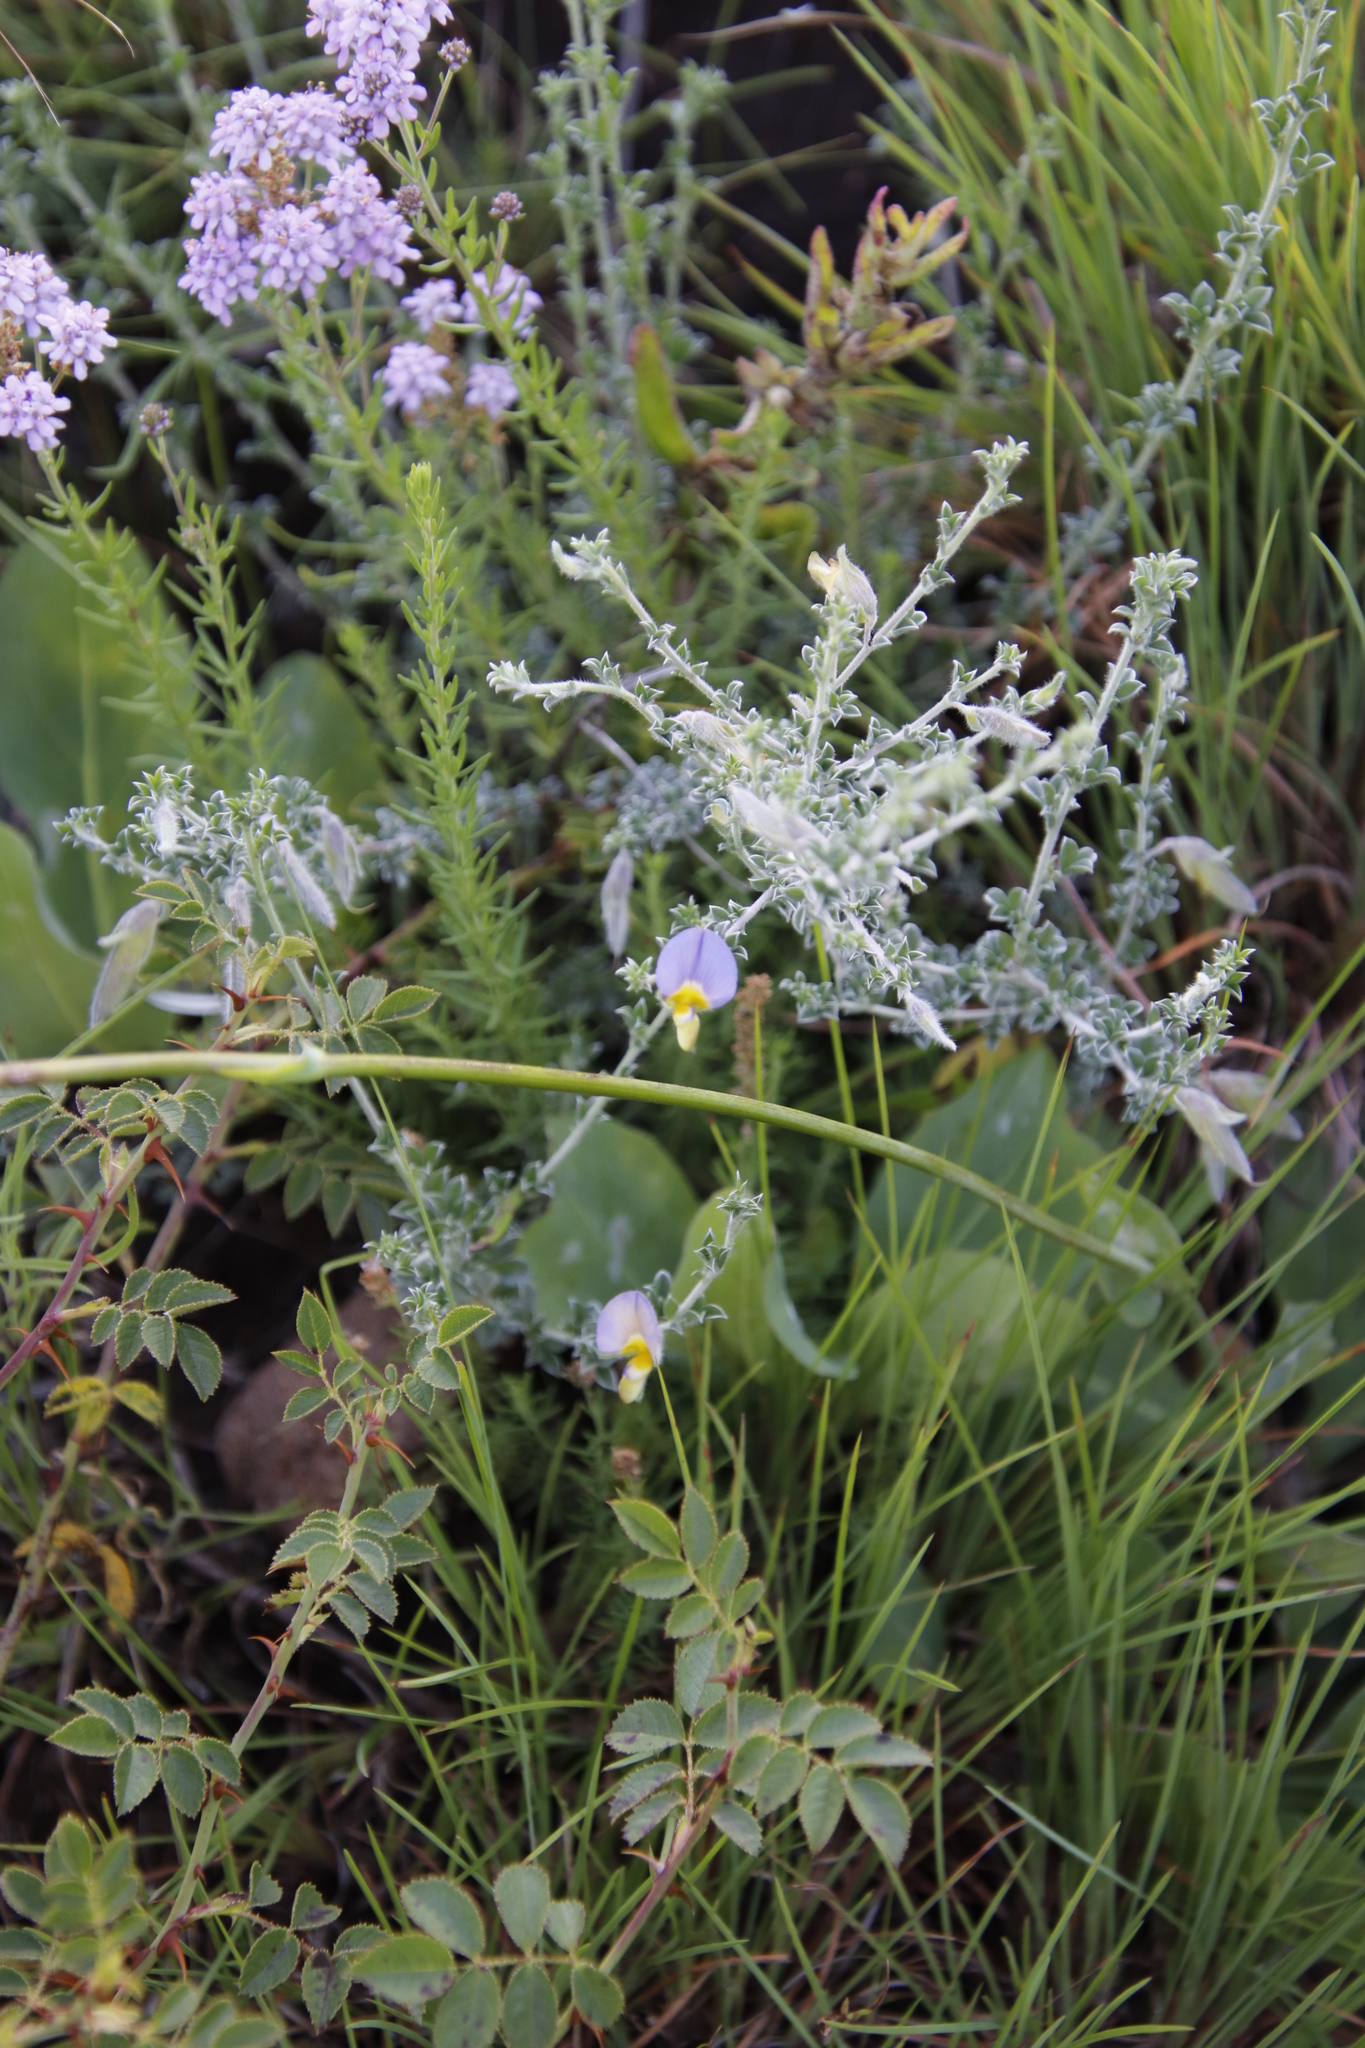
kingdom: Plantae
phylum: Tracheophyta
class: Magnoliopsida
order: Fabales
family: Fabaceae
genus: Lotononis
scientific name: Lotononis minor
